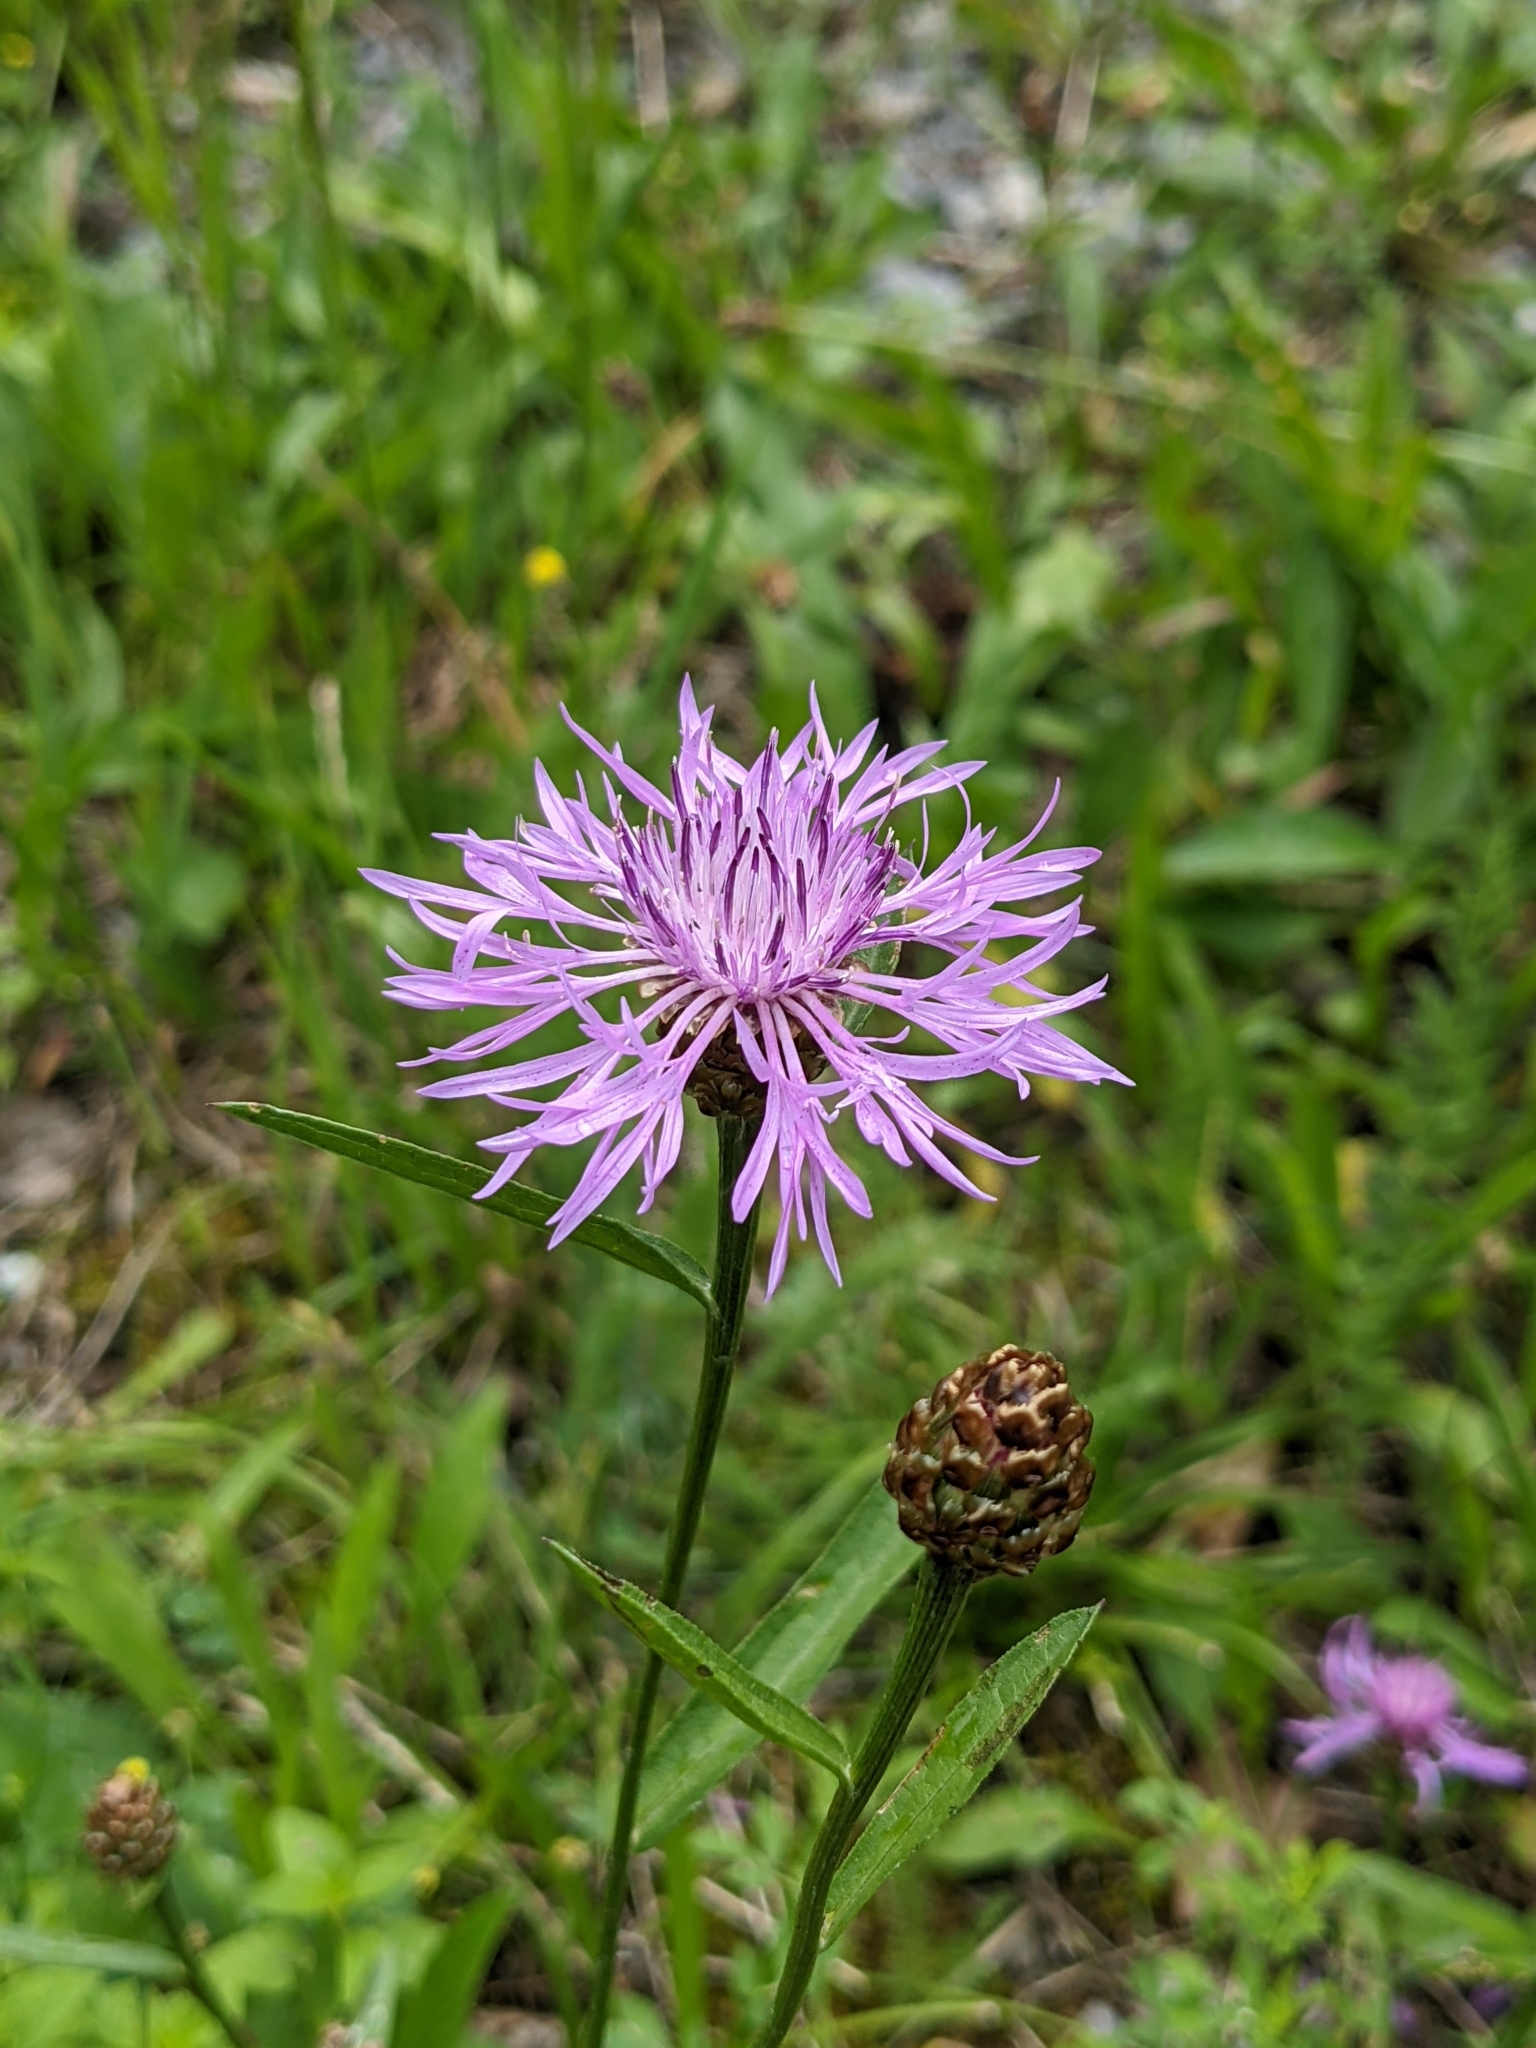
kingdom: Plantae
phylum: Tracheophyta
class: Magnoliopsida
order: Asterales
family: Asteraceae
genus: Centaurea
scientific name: Centaurea jacea
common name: Brown knapweed
